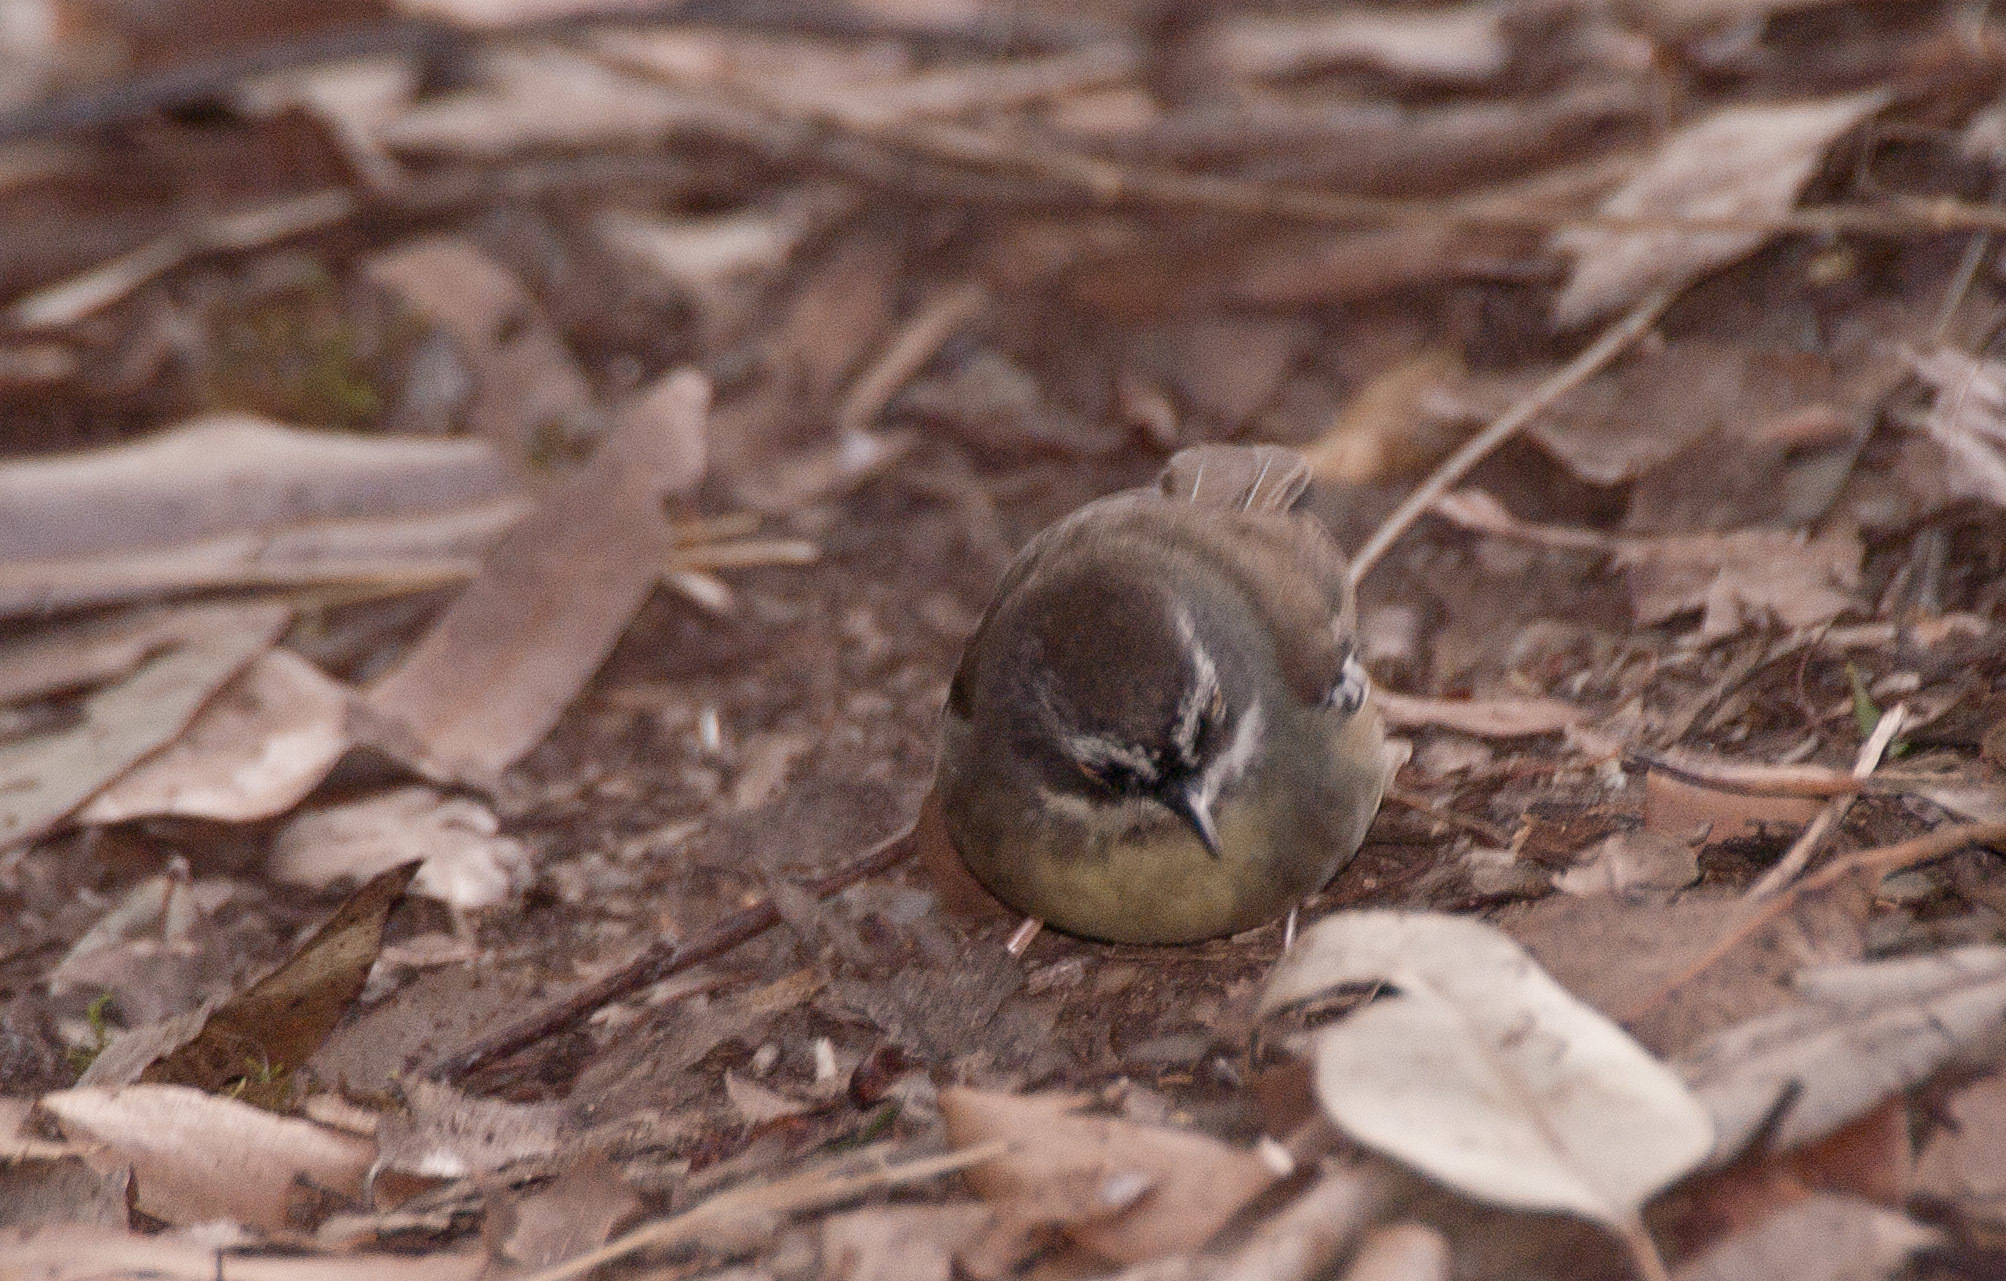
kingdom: Animalia
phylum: Chordata
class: Aves
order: Passeriformes
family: Acanthizidae
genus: Sericornis
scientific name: Sericornis frontalis
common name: White-browed scrubwren
